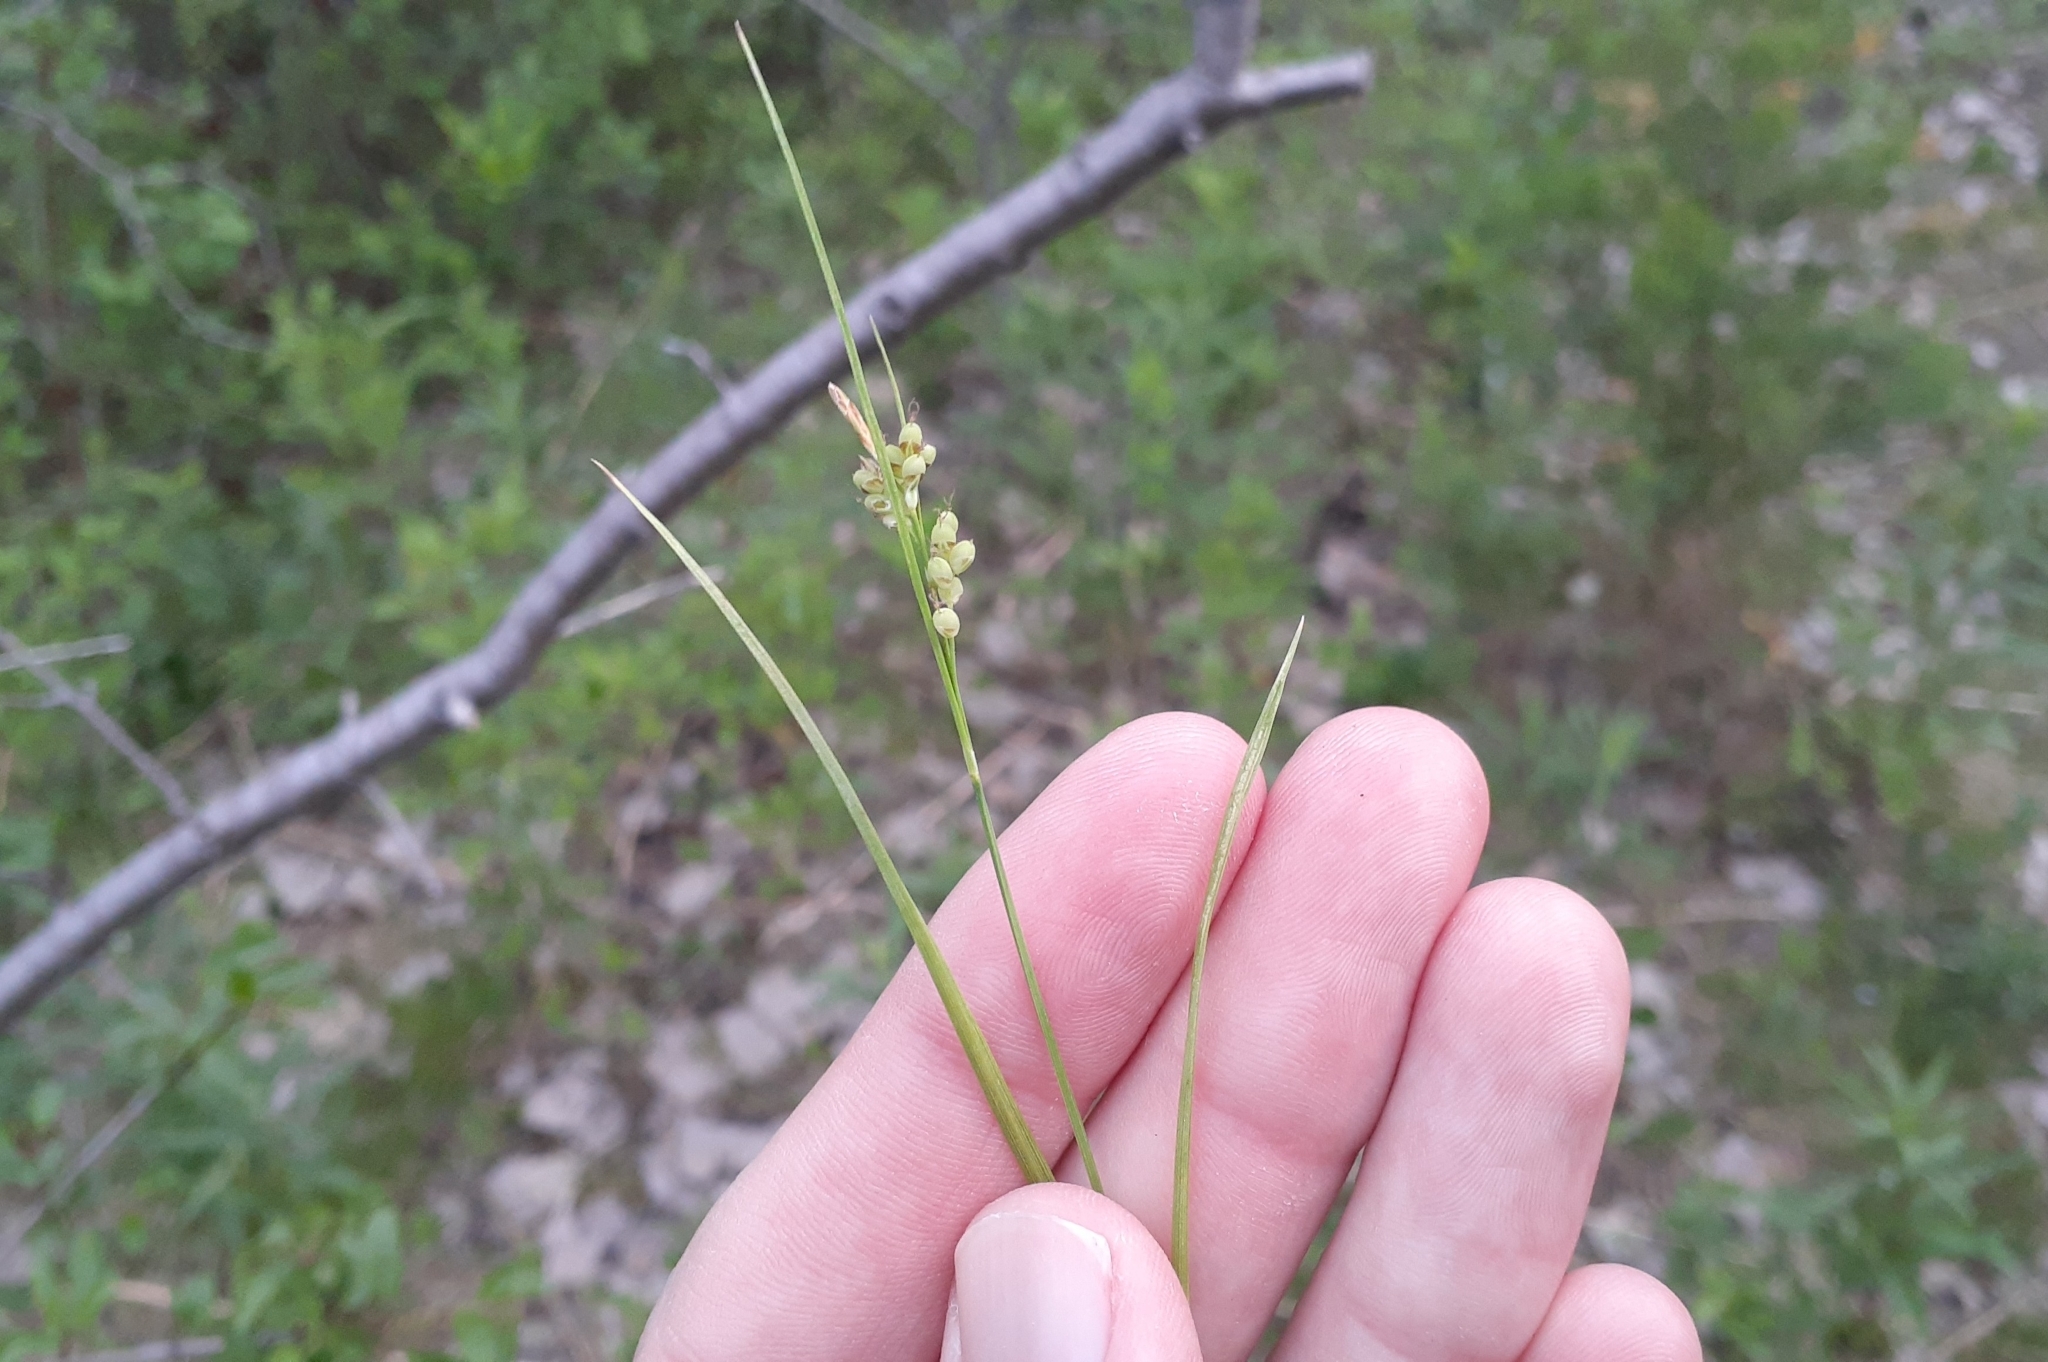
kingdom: Plantae
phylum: Tracheophyta
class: Liliopsida
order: Poales
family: Cyperaceae
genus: Carex
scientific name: Carex aurea
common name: Golden sedge
